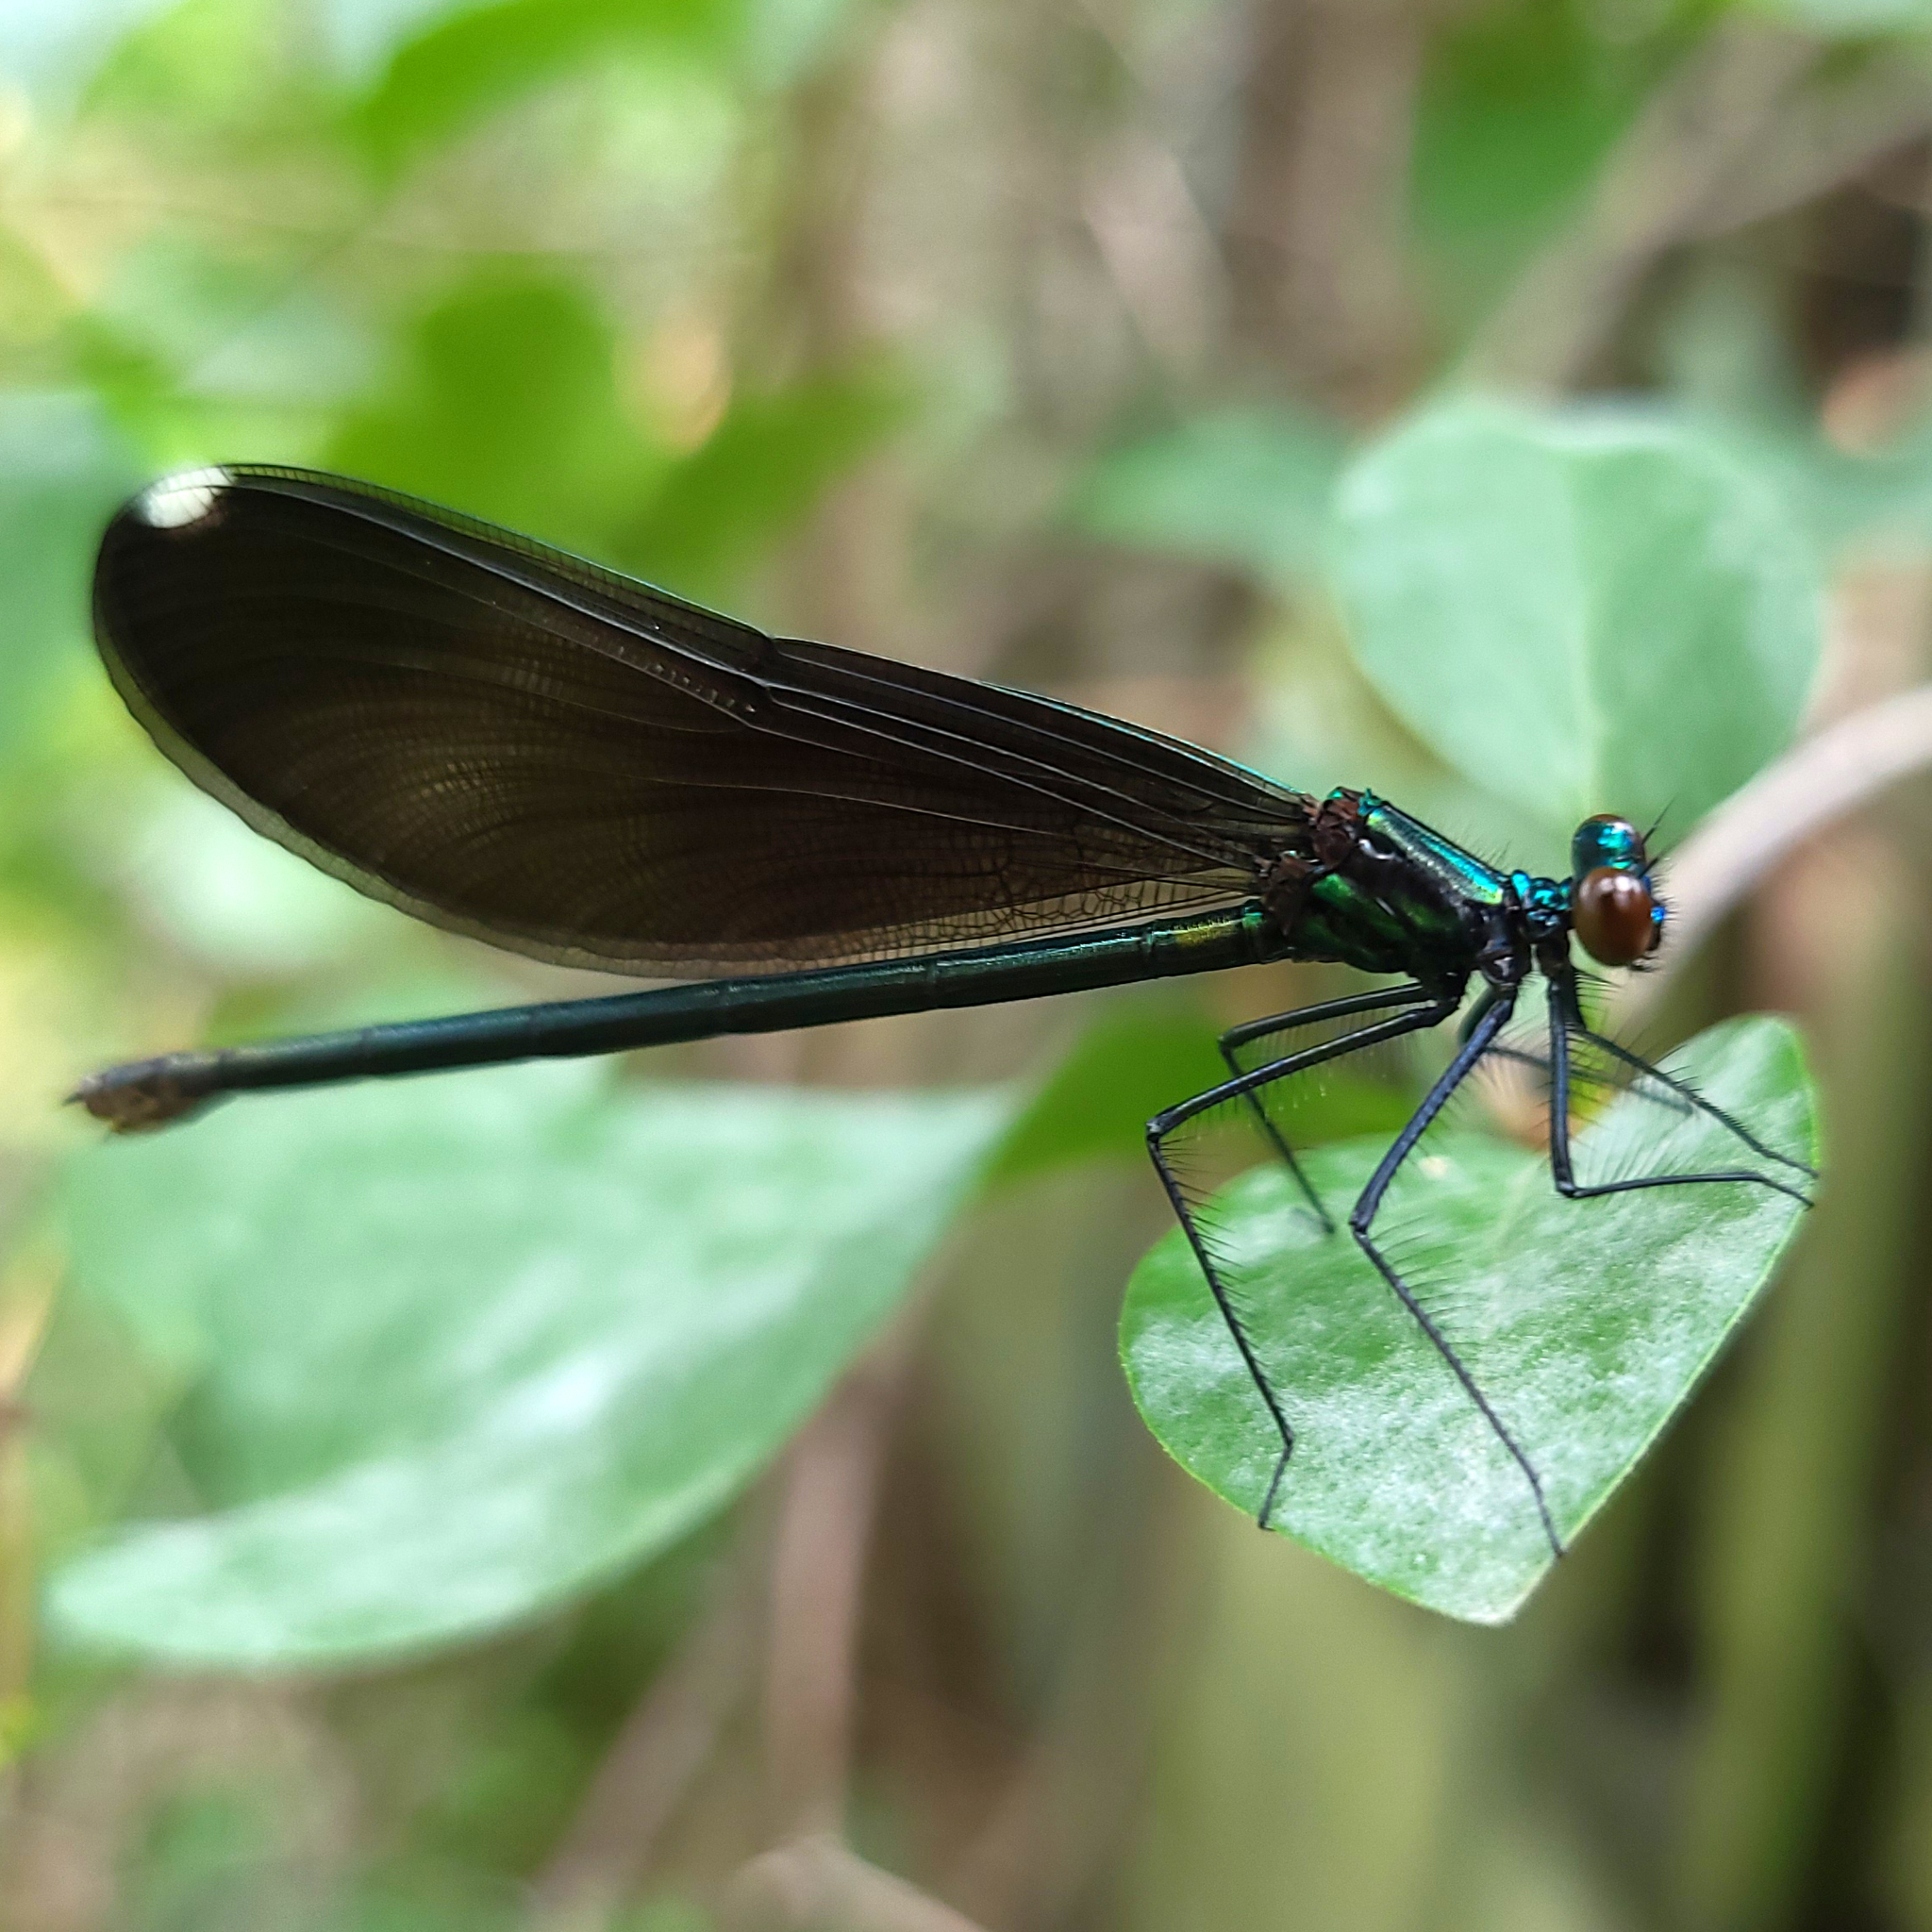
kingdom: Animalia
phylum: Arthropoda
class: Insecta
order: Odonata
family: Calopterygidae
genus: Calopteryx
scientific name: Calopteryx maculata
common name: Ebony jewelwing
